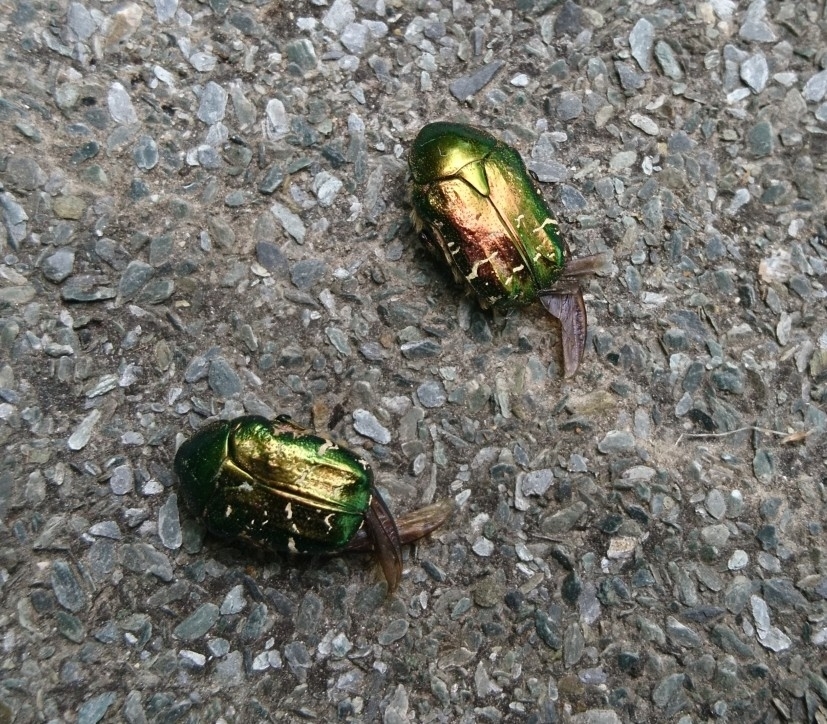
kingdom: Animalia
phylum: Arthropoda
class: Insecta
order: Coleoptera
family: Scarabaeidae
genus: Cetonia
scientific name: Cetonia aurata
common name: Rose chafer
